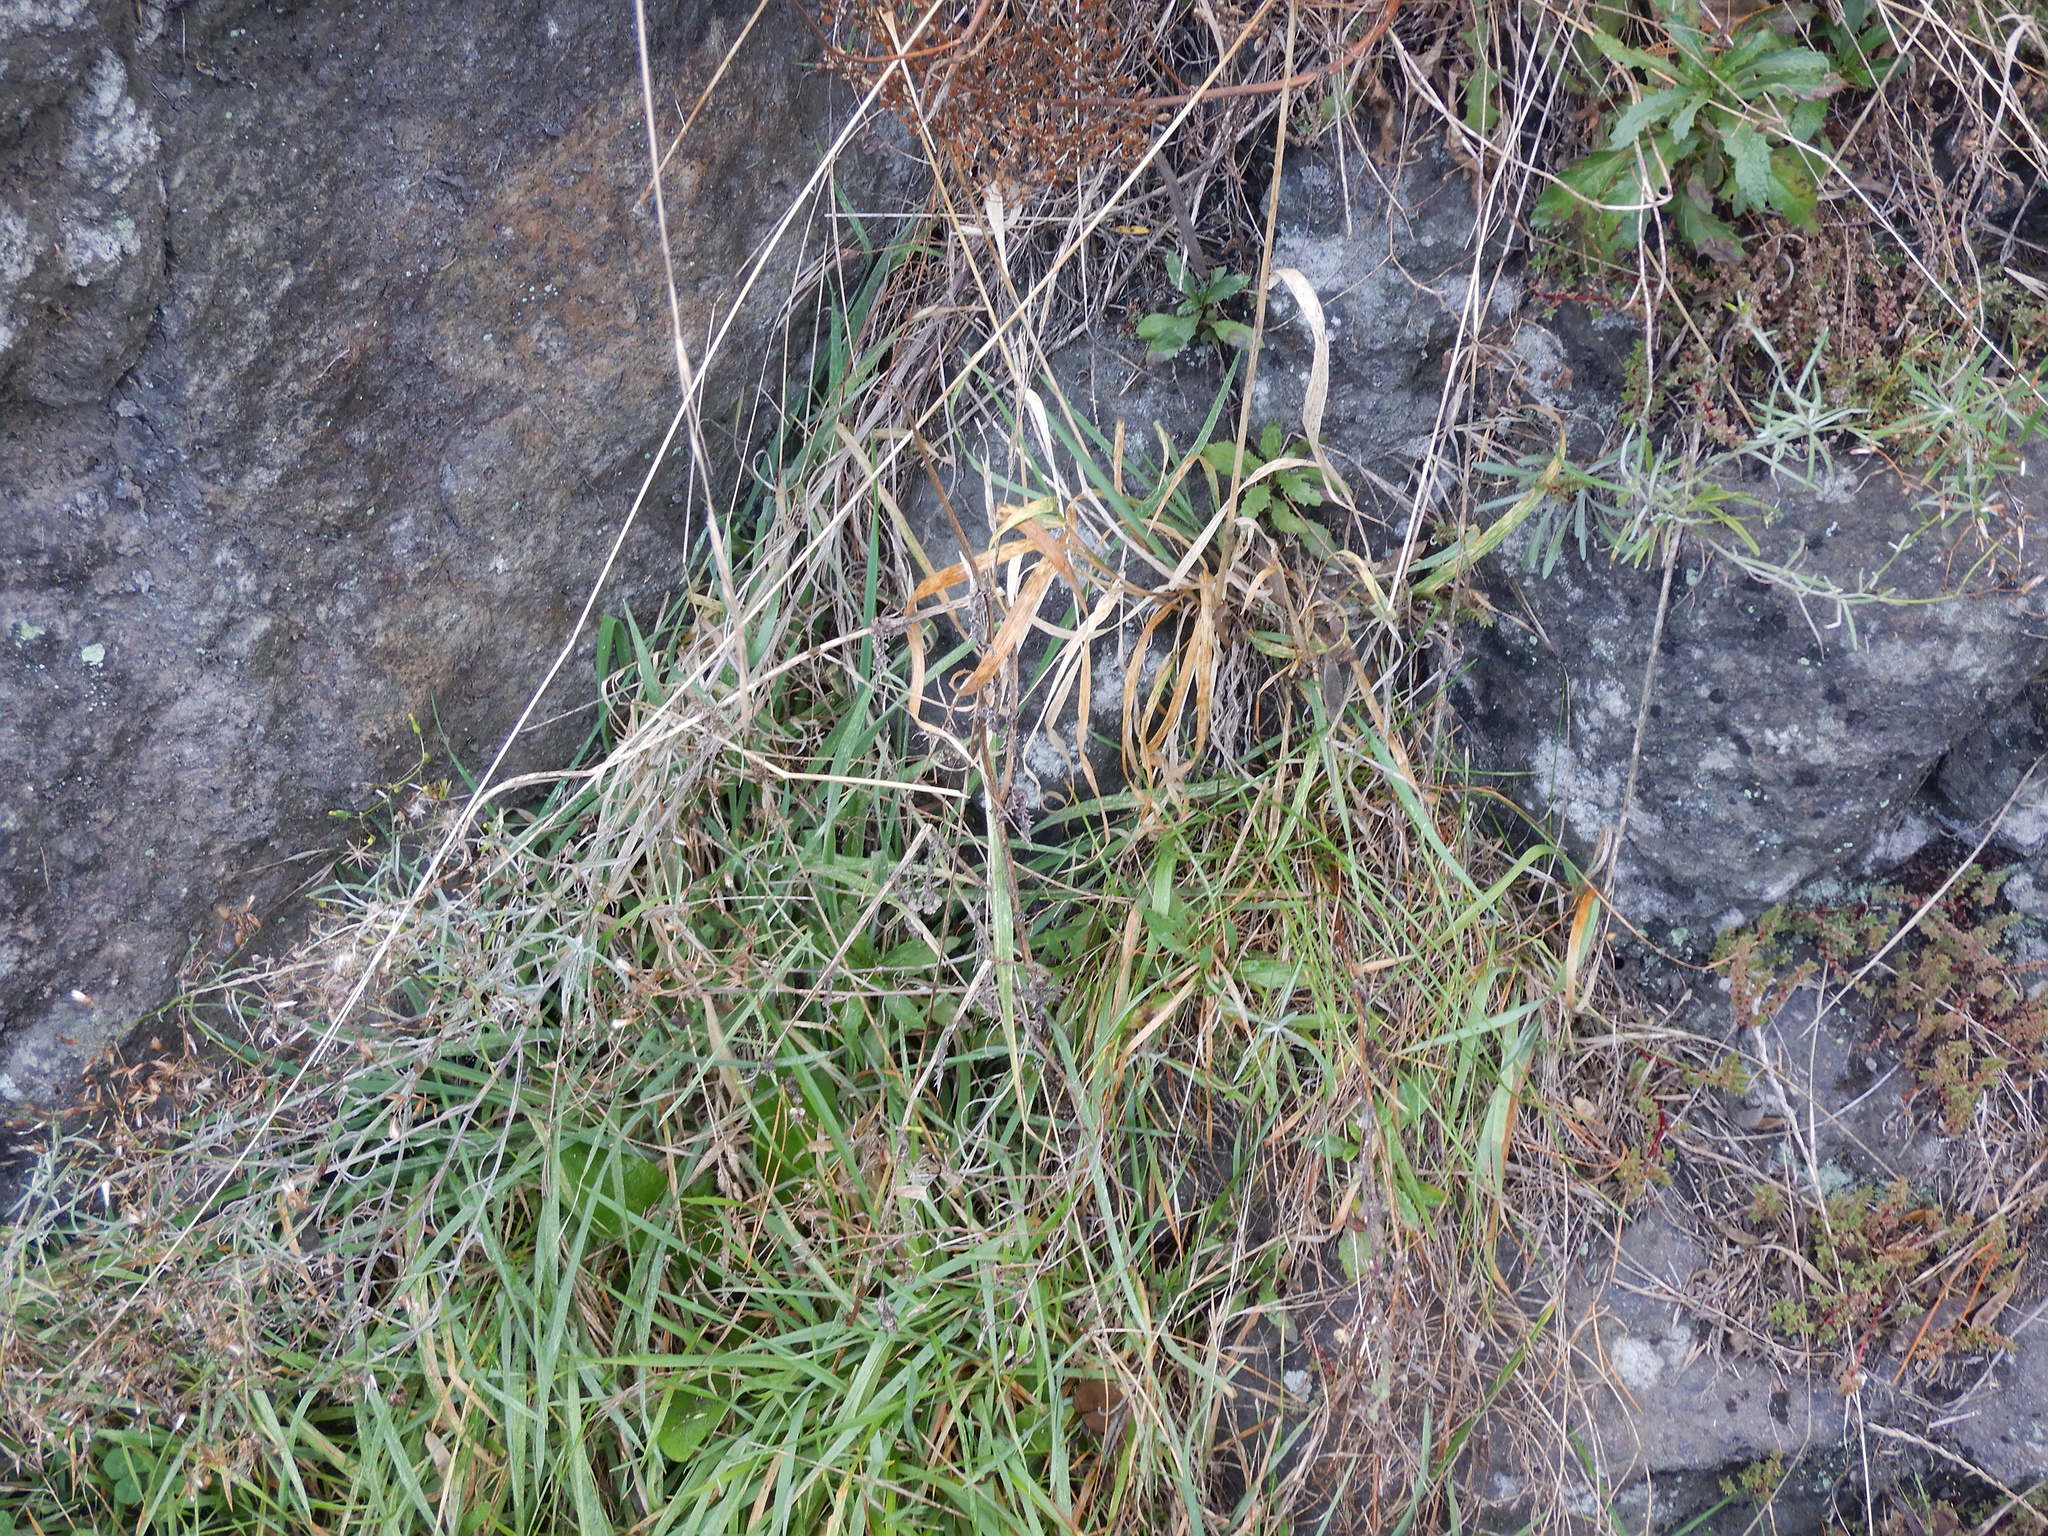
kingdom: Plantae
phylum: Tracheophyta
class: Magnoliopsida
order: Asterales
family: Asteraceae
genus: Senecio
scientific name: Senecio quadridentatus
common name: Cotton fireweed
